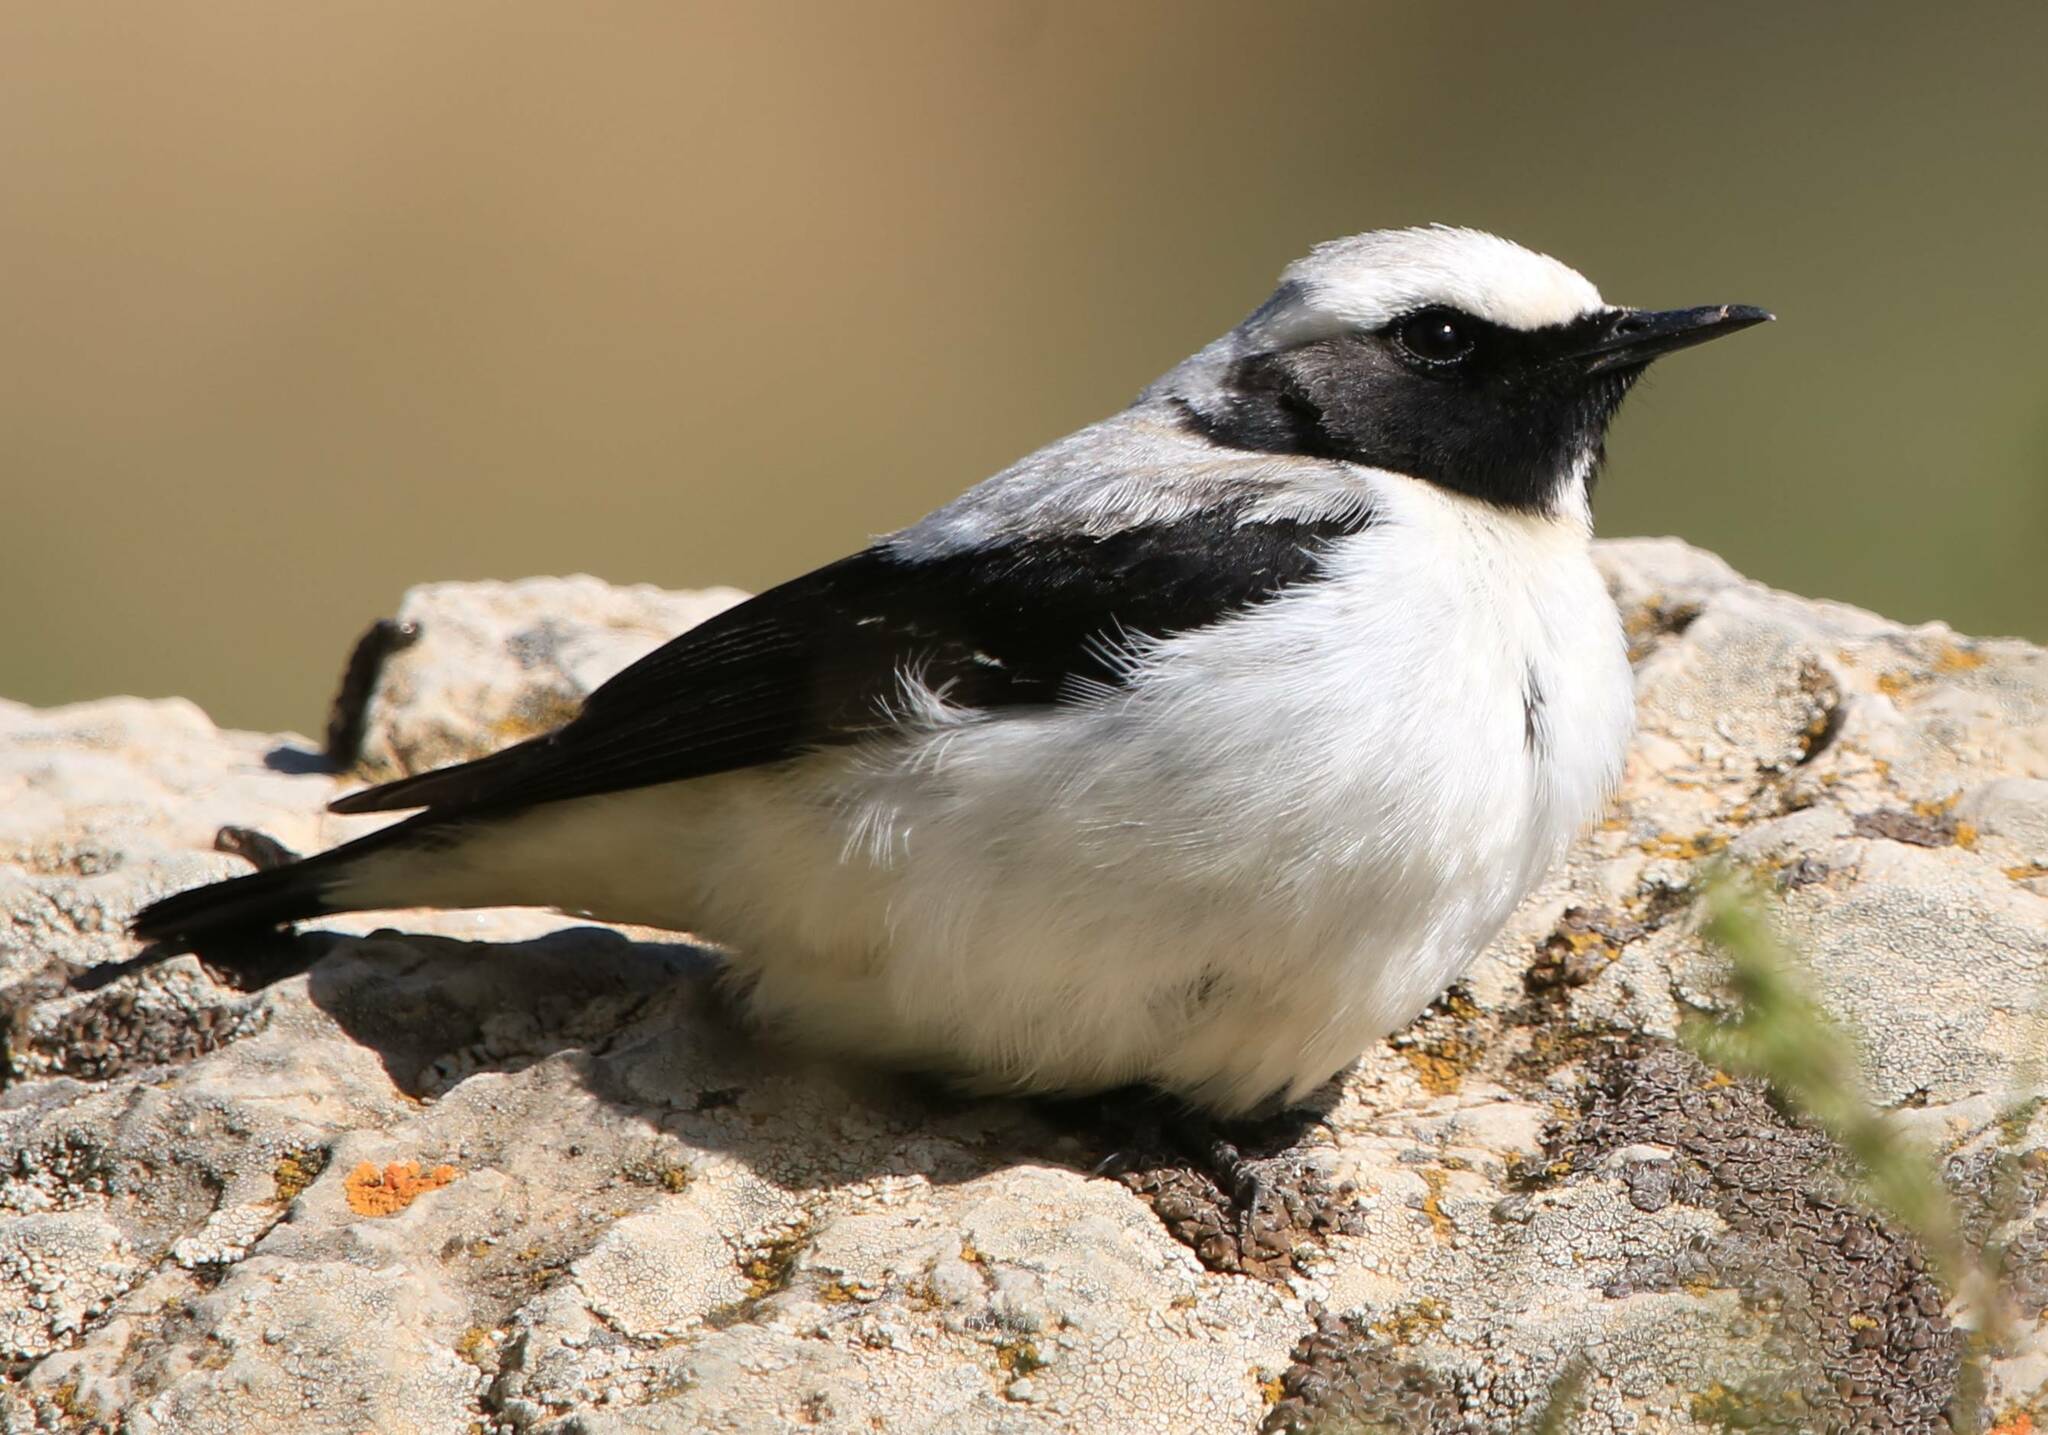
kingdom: Animalia
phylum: Chordata
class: Aves
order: Passeriformes
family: Muscicapidae
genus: Oenanthe
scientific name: Oenanthe oenanthe
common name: Northern wheatear
